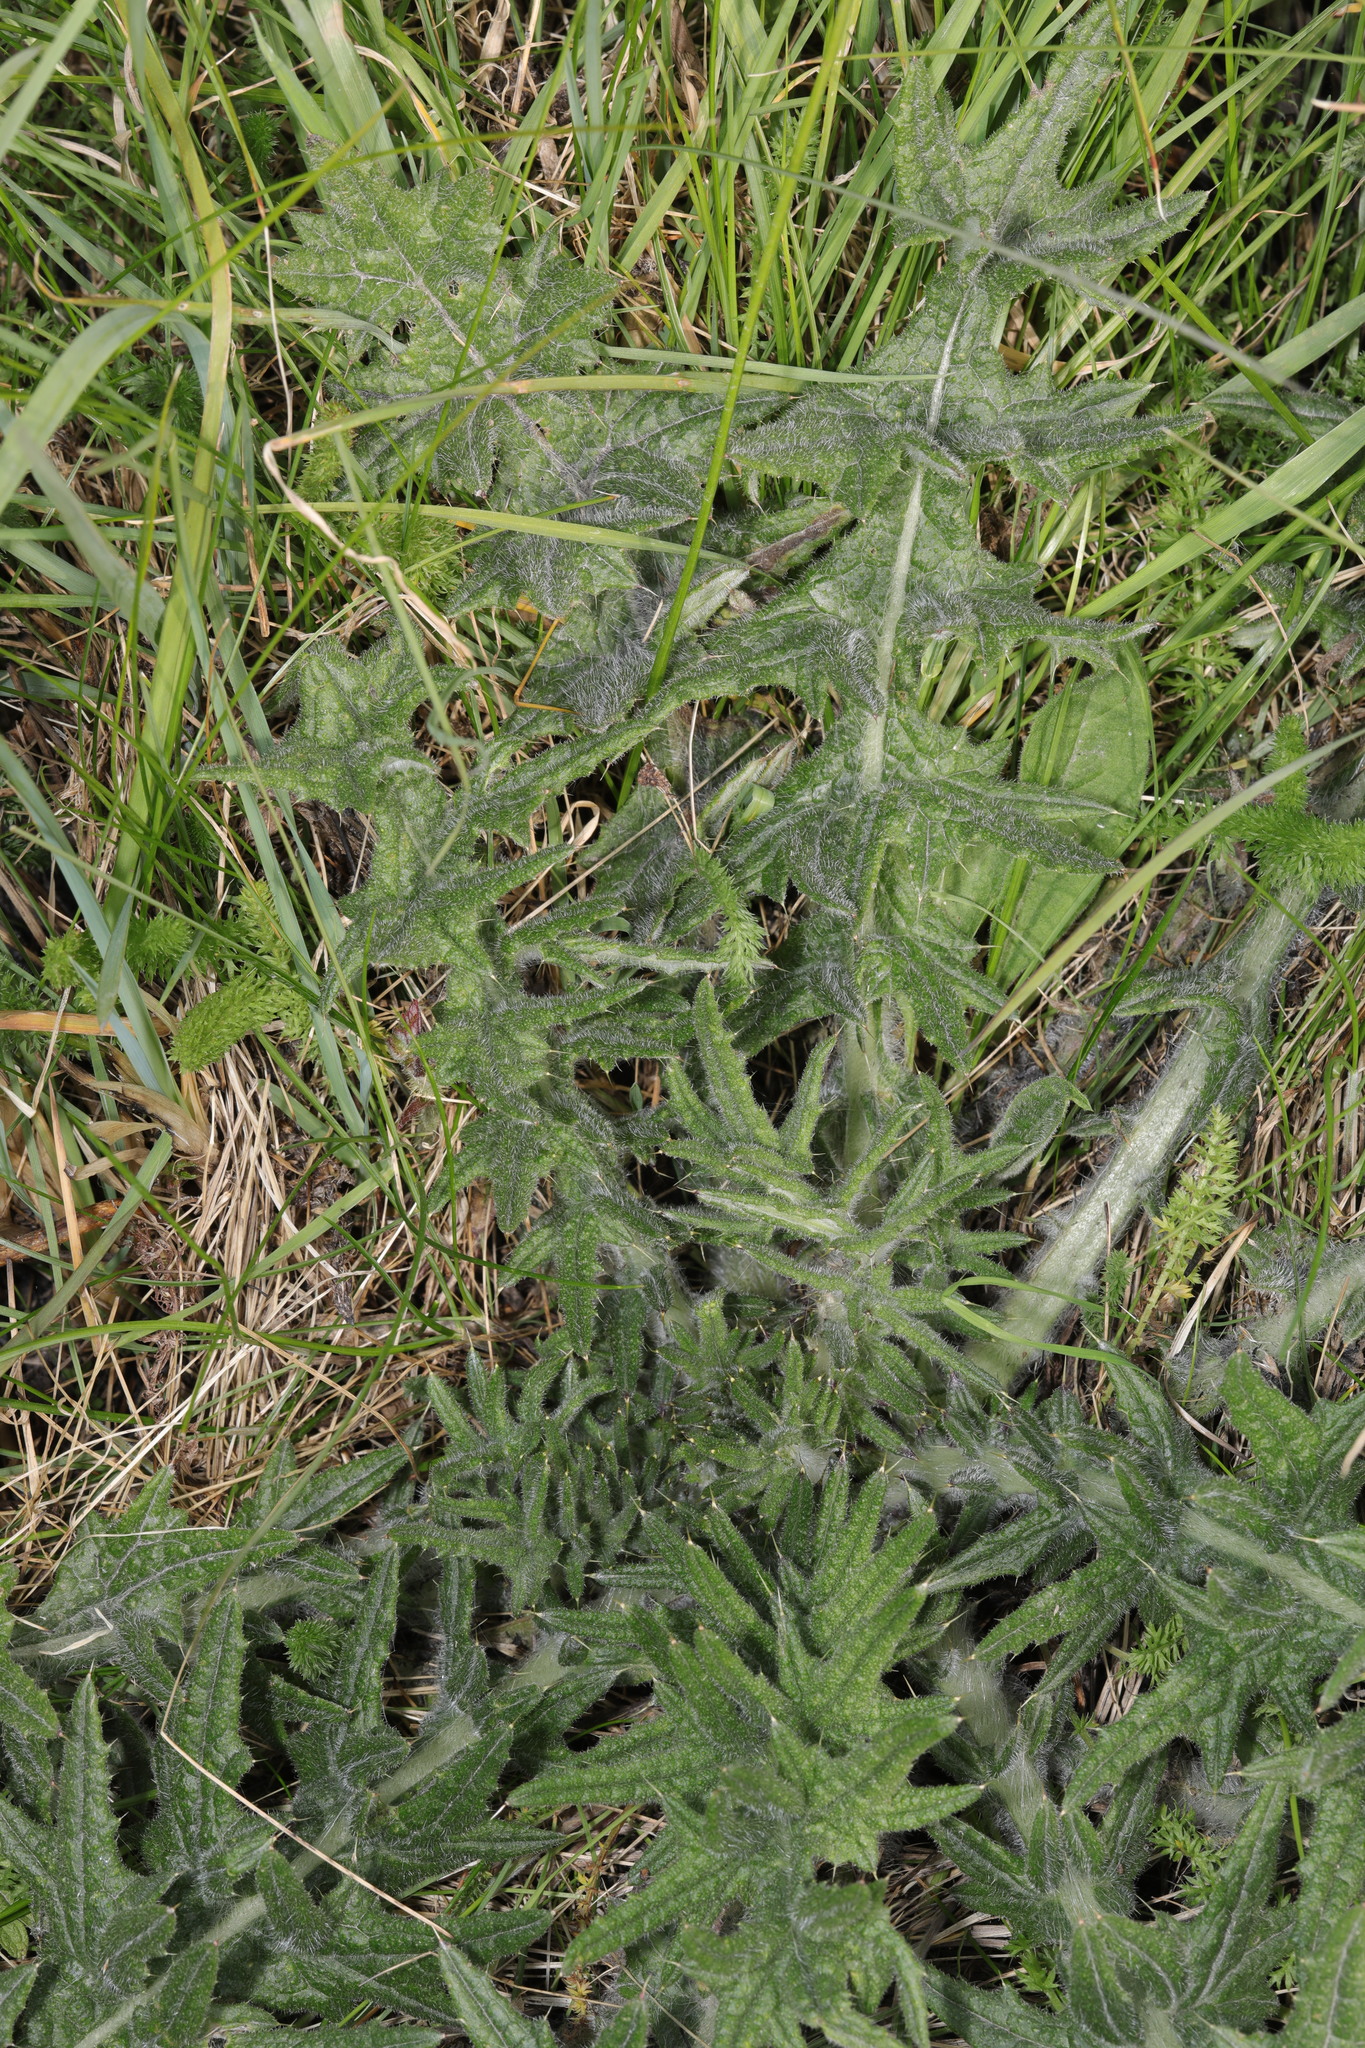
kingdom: Plantae
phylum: Tracheophyta
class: Magnoliopsida
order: Asterales
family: Asteraceae
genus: Cirsium
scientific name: Cirsium vulgare
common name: Bull thistle
